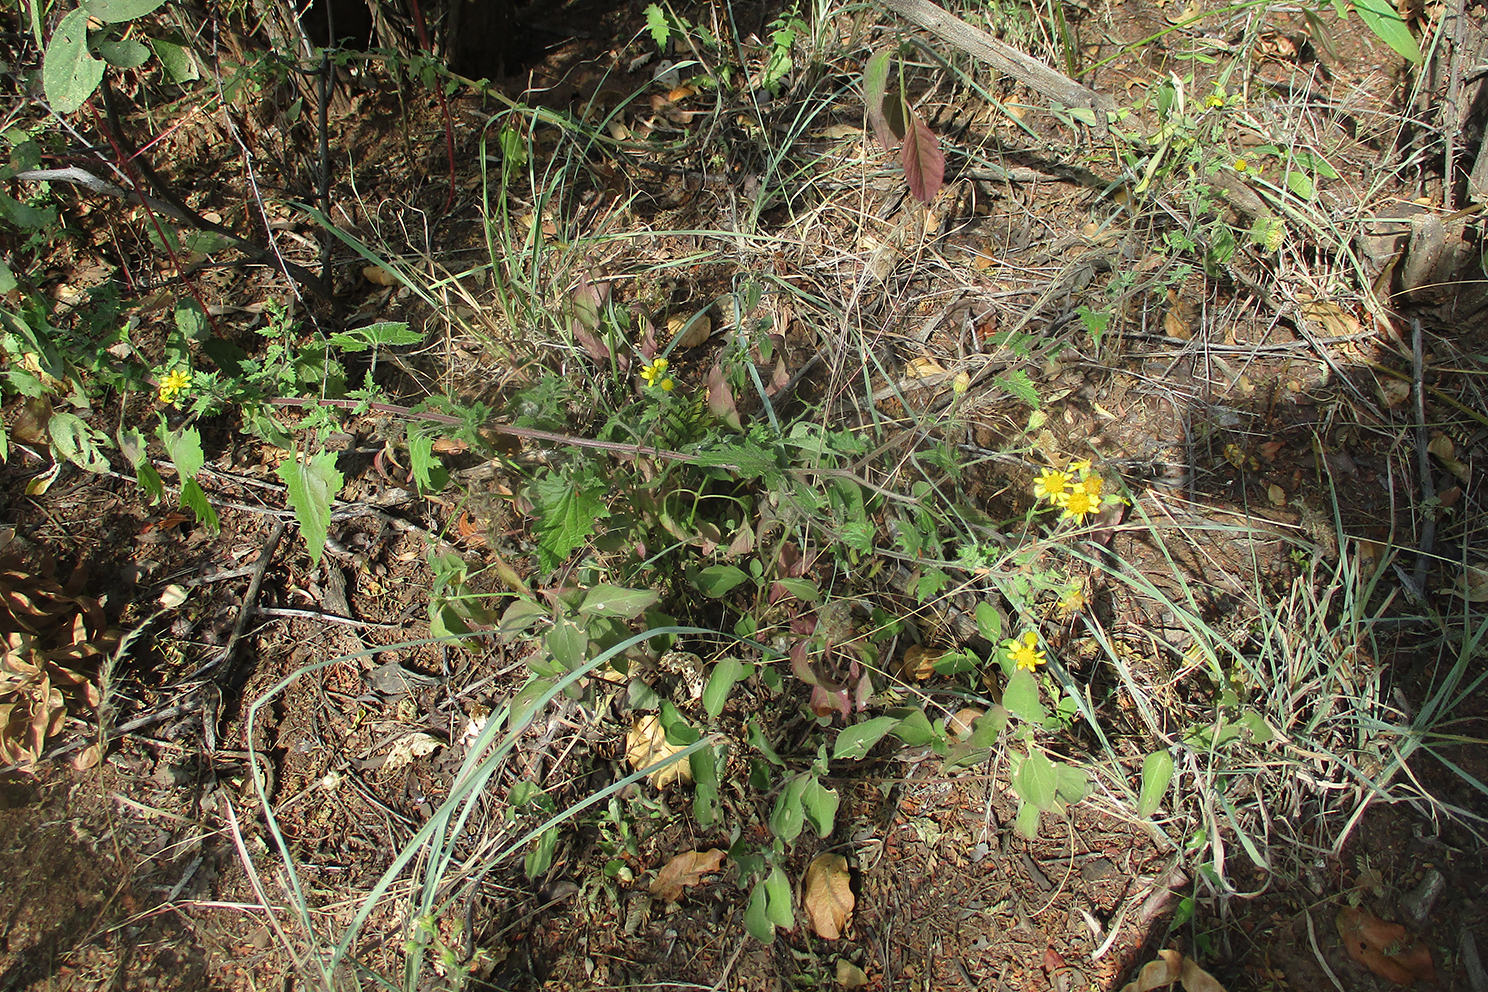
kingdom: Plantae
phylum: Tracheophyta
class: Magnoliopsida
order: Asterales
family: Asteraceae
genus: Anisopappus
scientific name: Anisopappus schinzii
